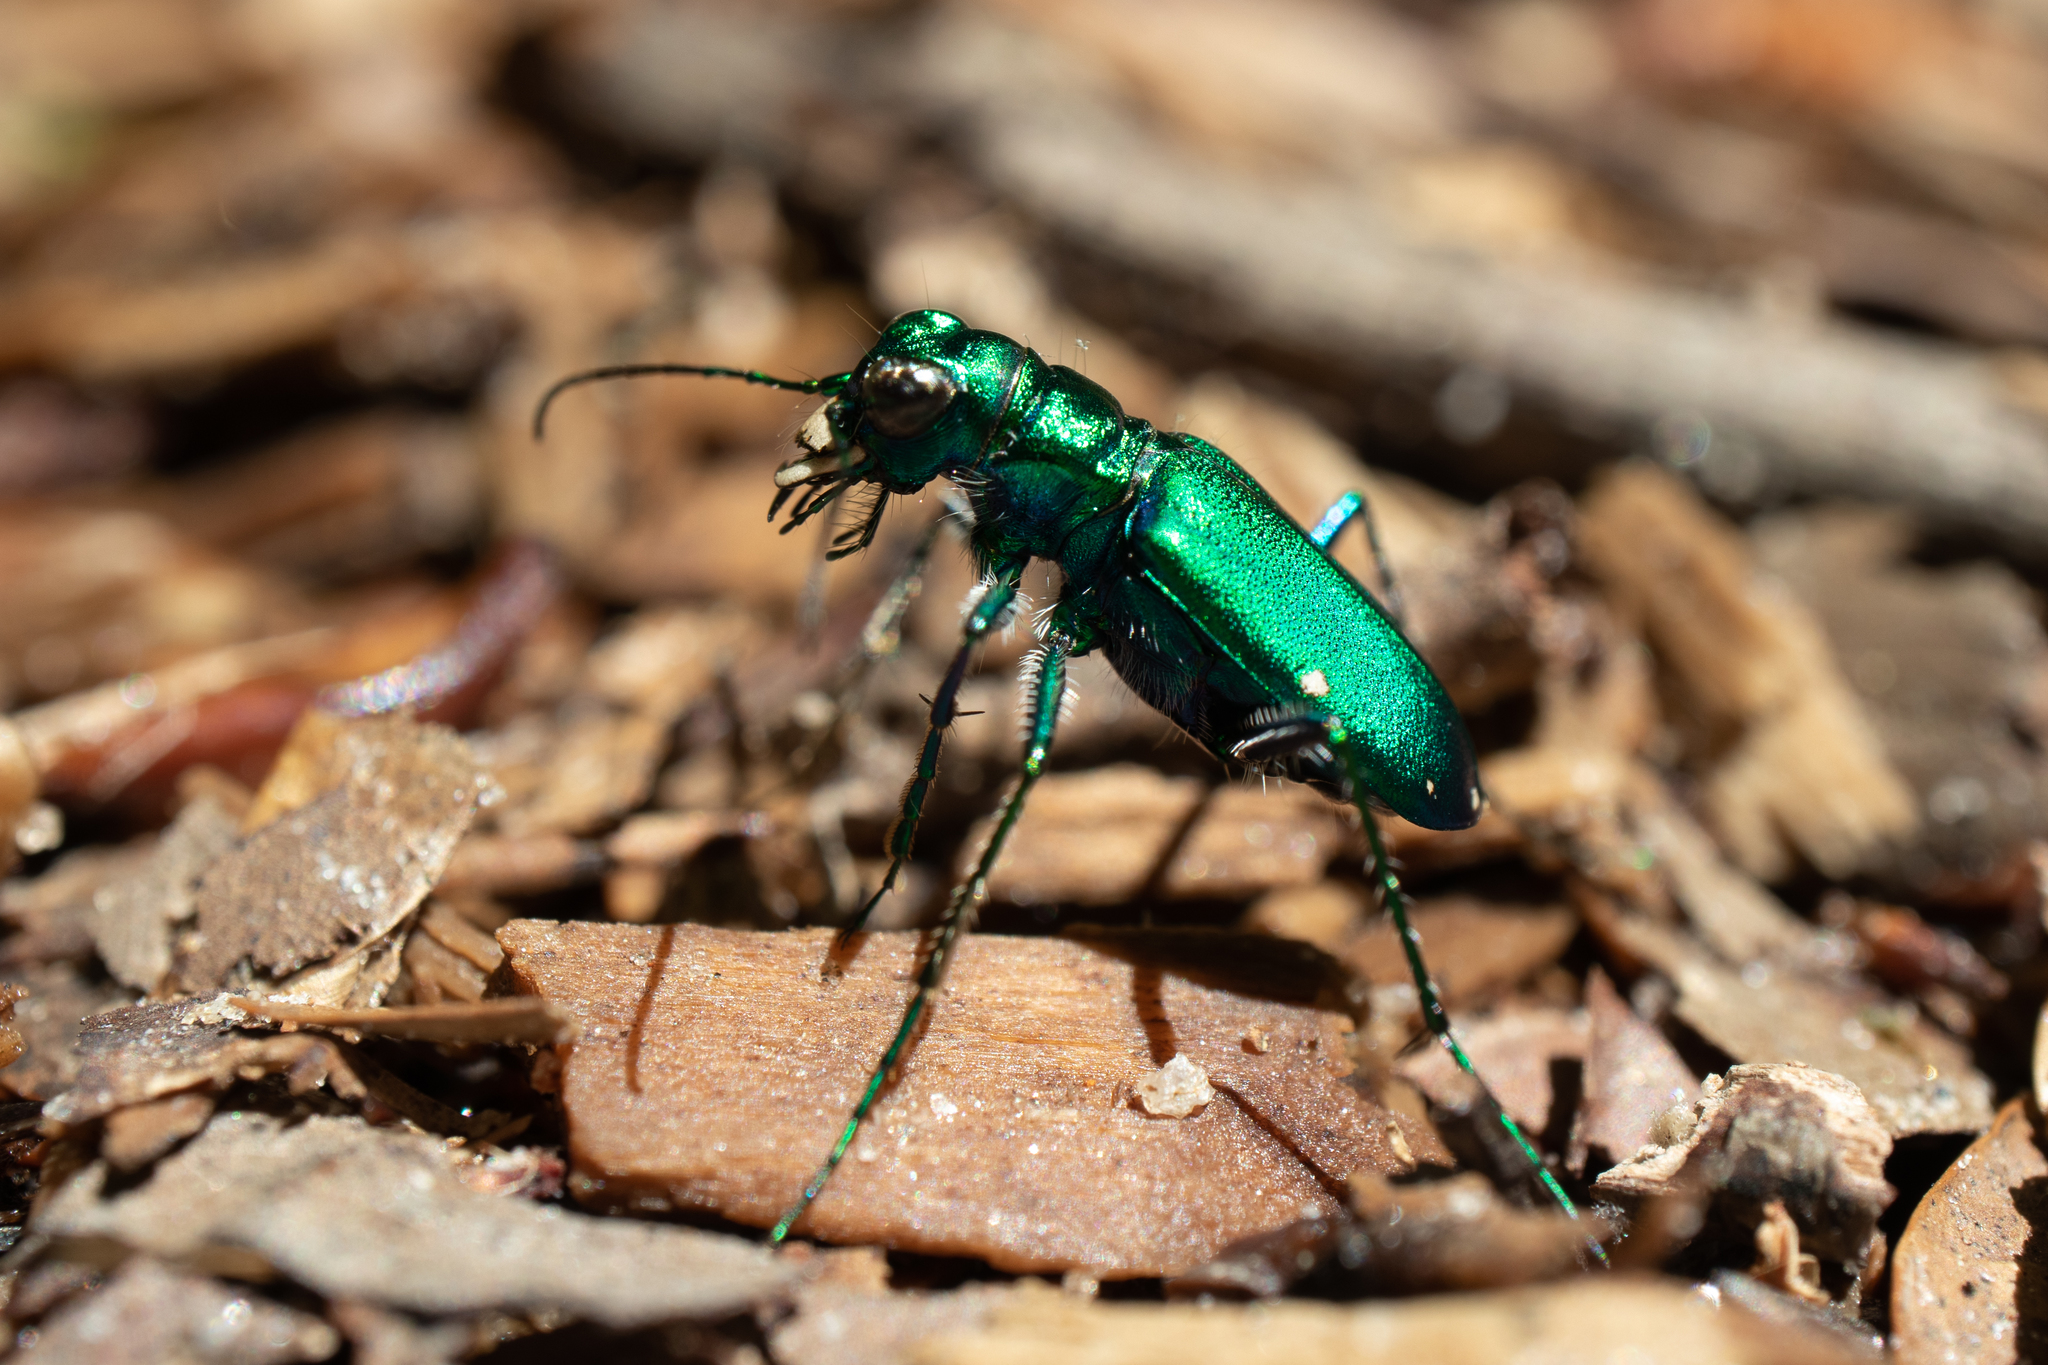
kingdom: Animalia
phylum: Arthropoda
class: Insecta
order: Coleoptera
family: Carabidae
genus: Cicindela
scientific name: Cicindela sexguttata
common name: Six-spotted tiger beetle
